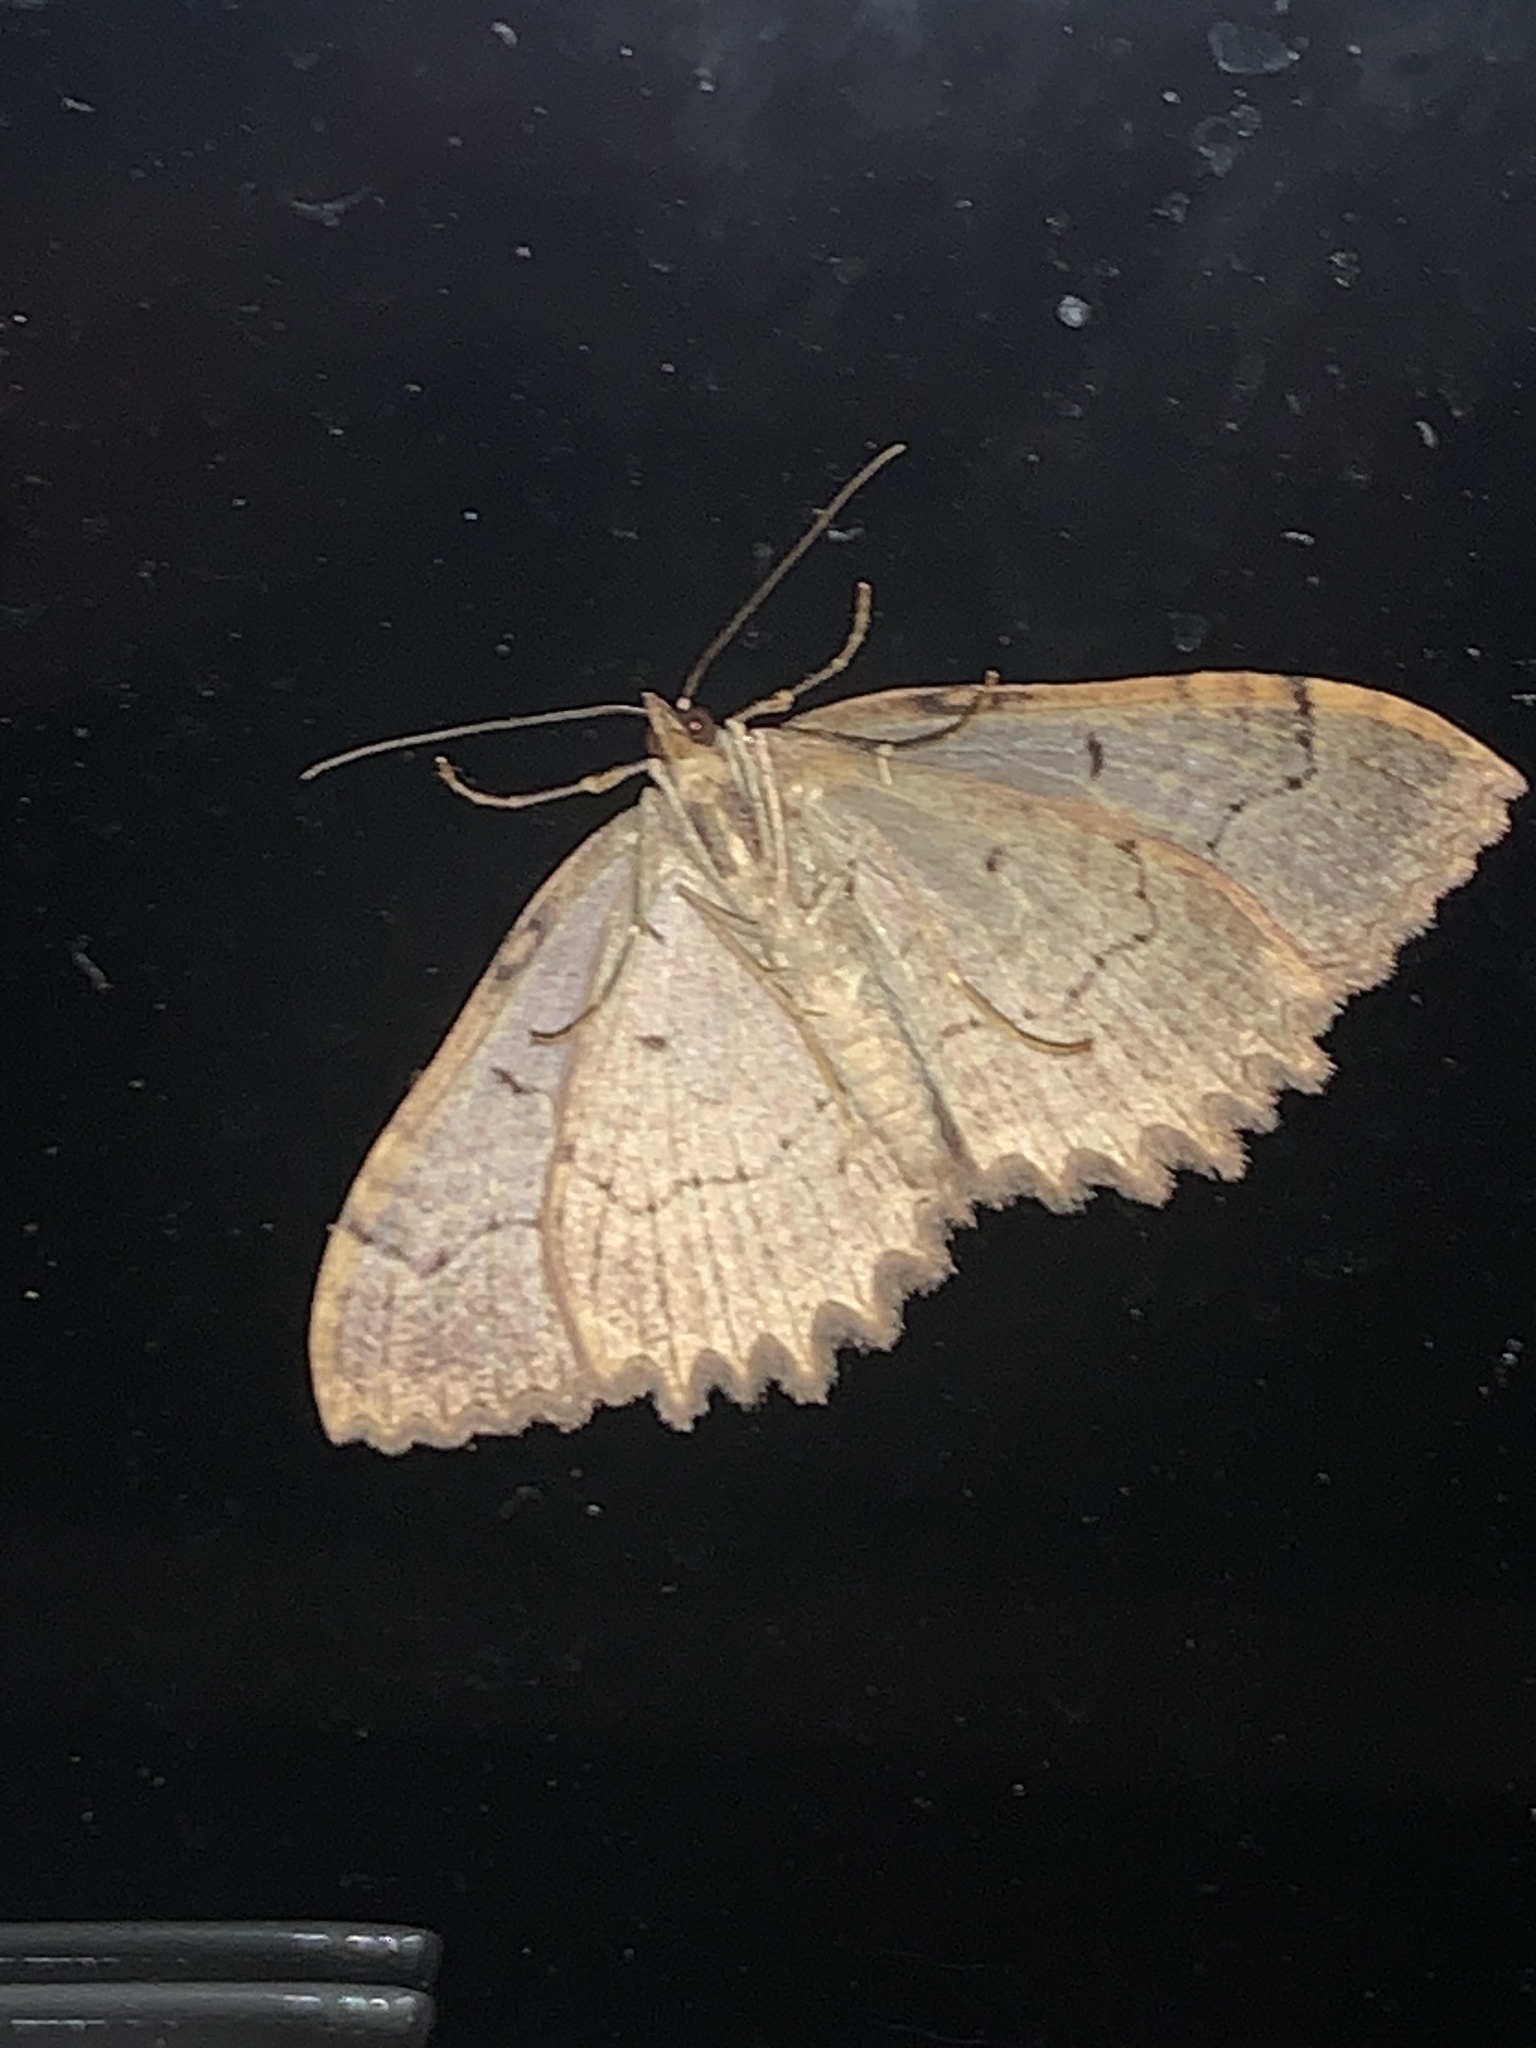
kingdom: Animalia
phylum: Arthropoda
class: Insecta
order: Lepidoptera
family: Geometridae
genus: Triphosa
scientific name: Triphosa haesitata
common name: Tissue moth
